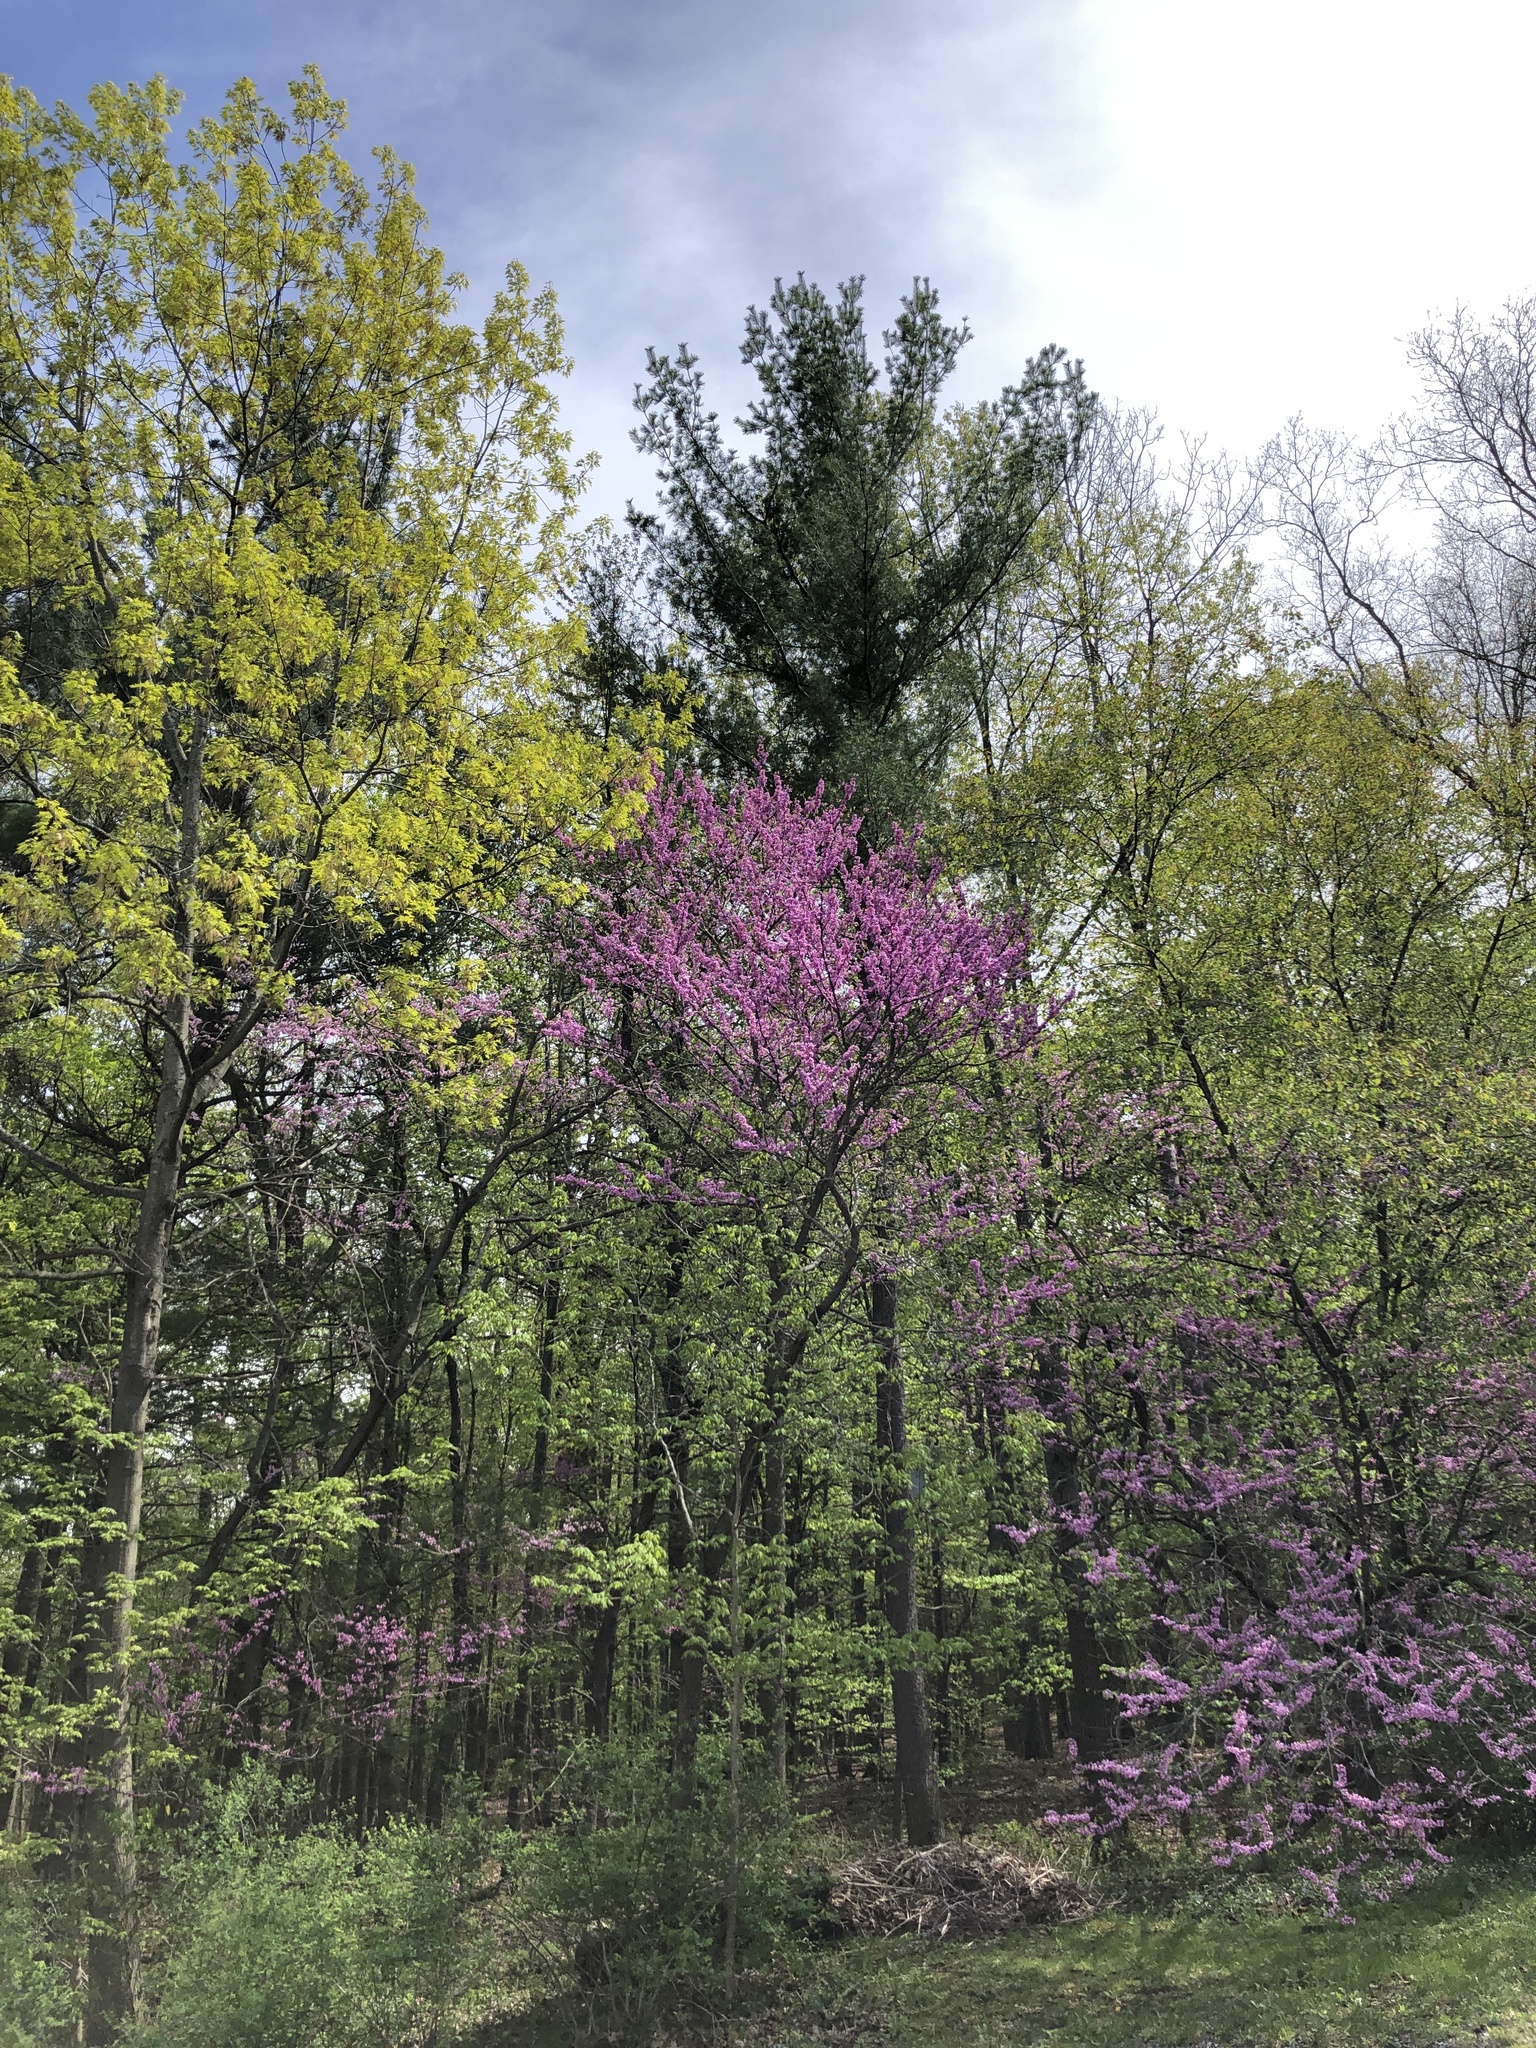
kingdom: Plantae
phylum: Tracheophyta
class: Magnoliopsida
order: Fabales
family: Fabaceae
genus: Cercis
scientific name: Cercis canadensis
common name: Eastern redbud
